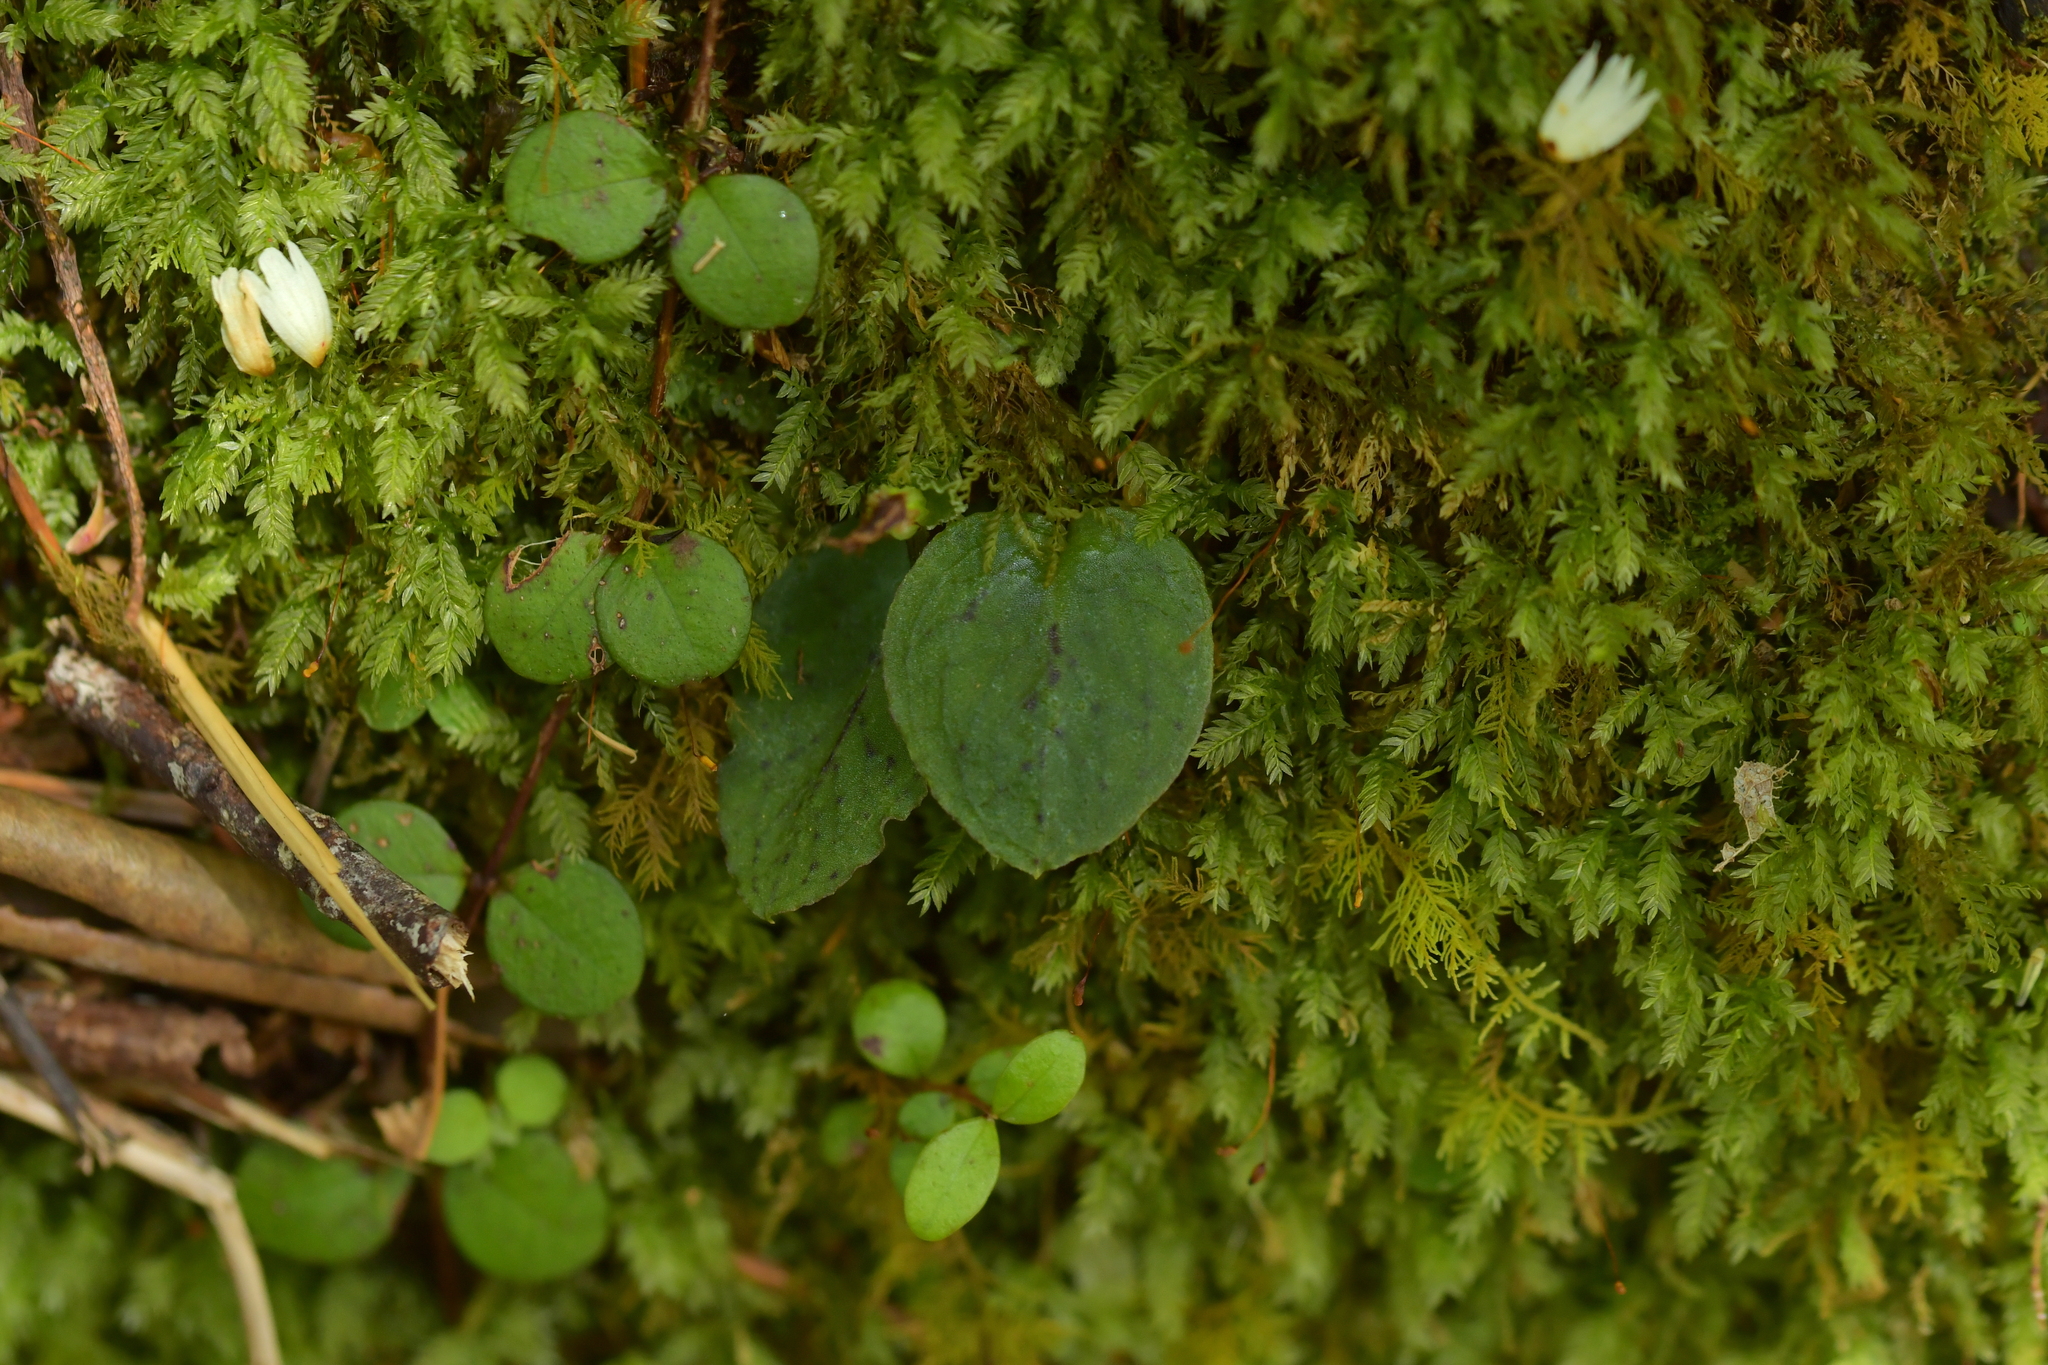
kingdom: Plantae
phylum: Tracheophyta
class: Liliopsida
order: Asparagales
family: Orchidaceae
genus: Corybas
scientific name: Corybas oblongus
